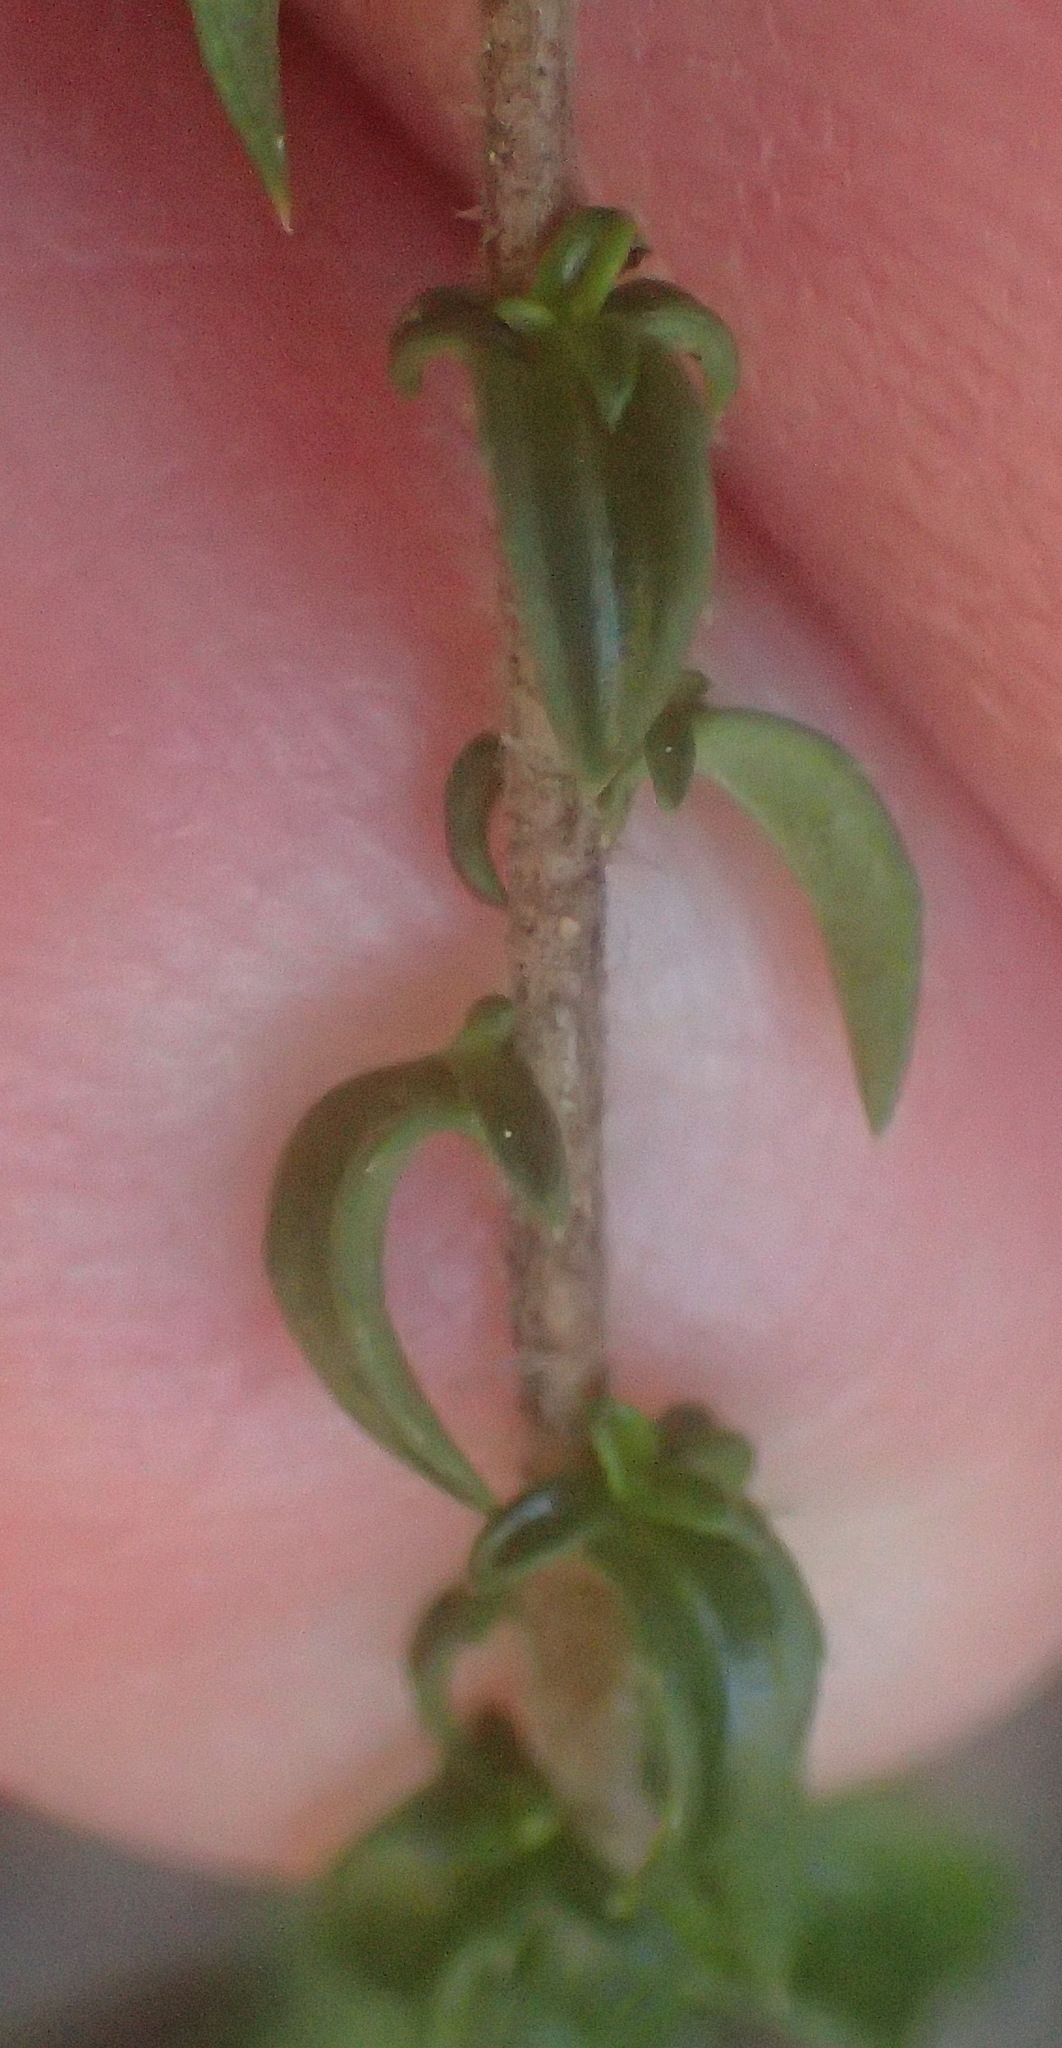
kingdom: Plantae
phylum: Tracheophyta
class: Magnoliopsida
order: Asterales
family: Campanulaceae
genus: Wahlenbergia
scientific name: Wahlenbergia desmantha
